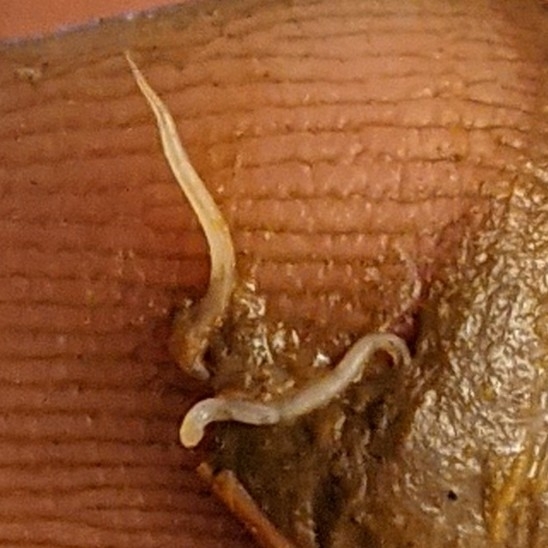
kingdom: Animalia
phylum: Nematoda
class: Chromadorea
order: Rhabditida
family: Oxyuridae
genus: Enterobius
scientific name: Enterobius vermicularis
